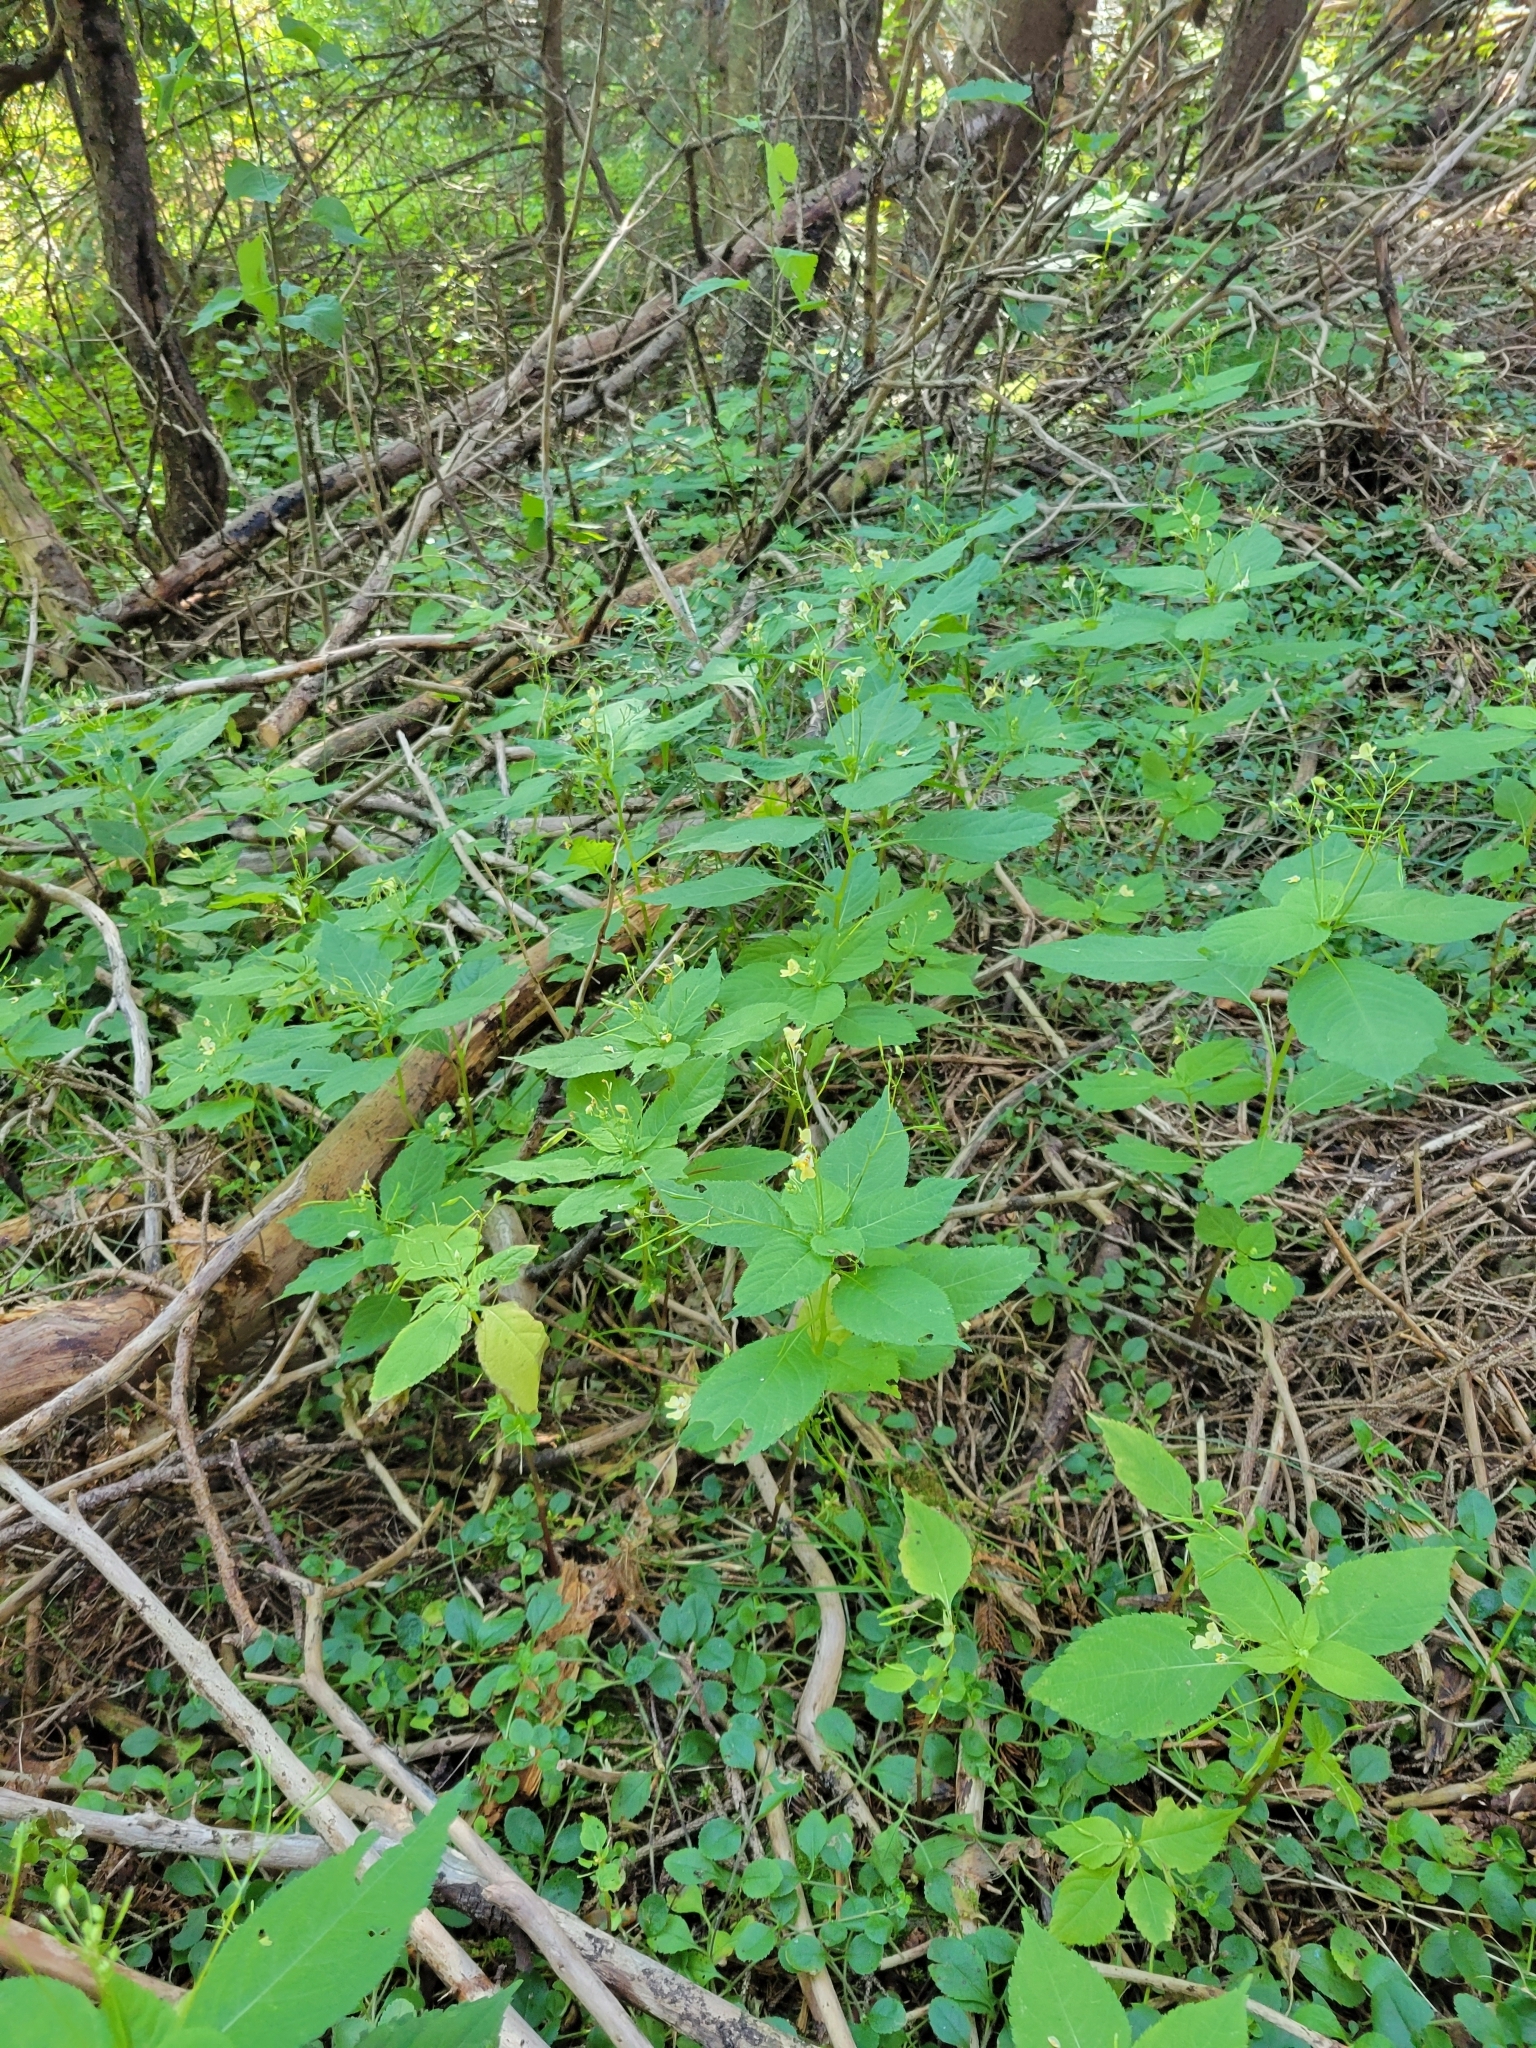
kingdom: Plantae
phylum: Tracheophyta
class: Magnoliopsida
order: Ericales
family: Balsaminaceae
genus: Impatiens
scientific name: Impatiens parviflora
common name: Small balsam
